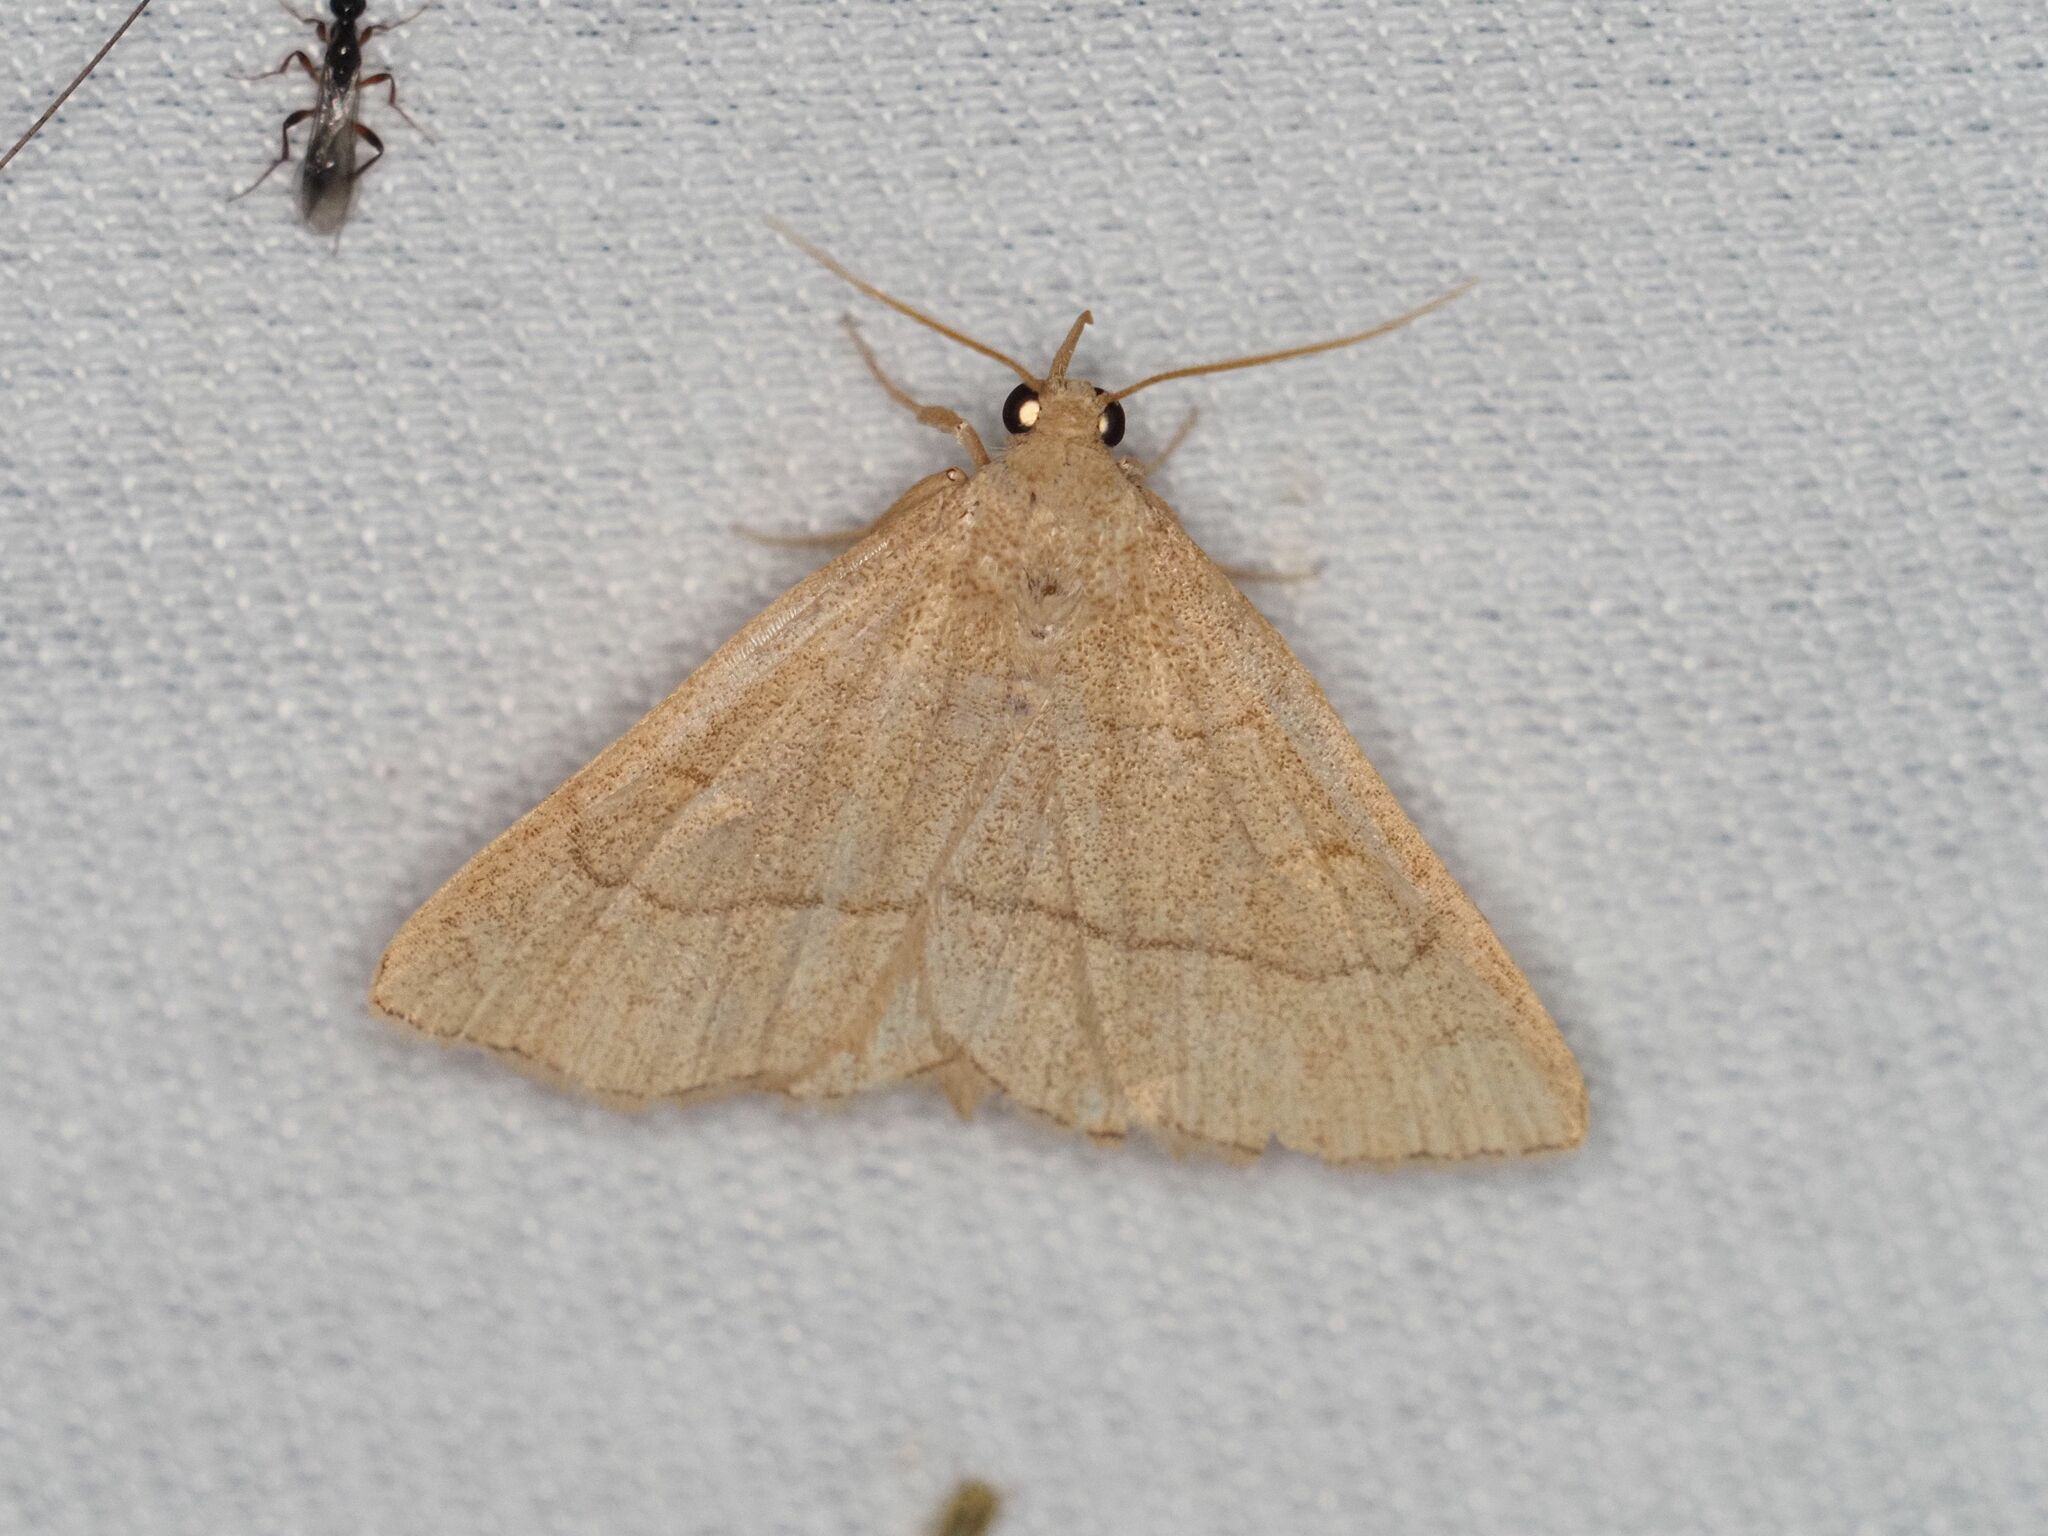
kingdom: Animalia
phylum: Arthropoda
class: Insecta
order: Lepidoptera
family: Erebidae
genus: Paracolax
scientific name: Paracolax tristalis
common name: Clay fan-foot
